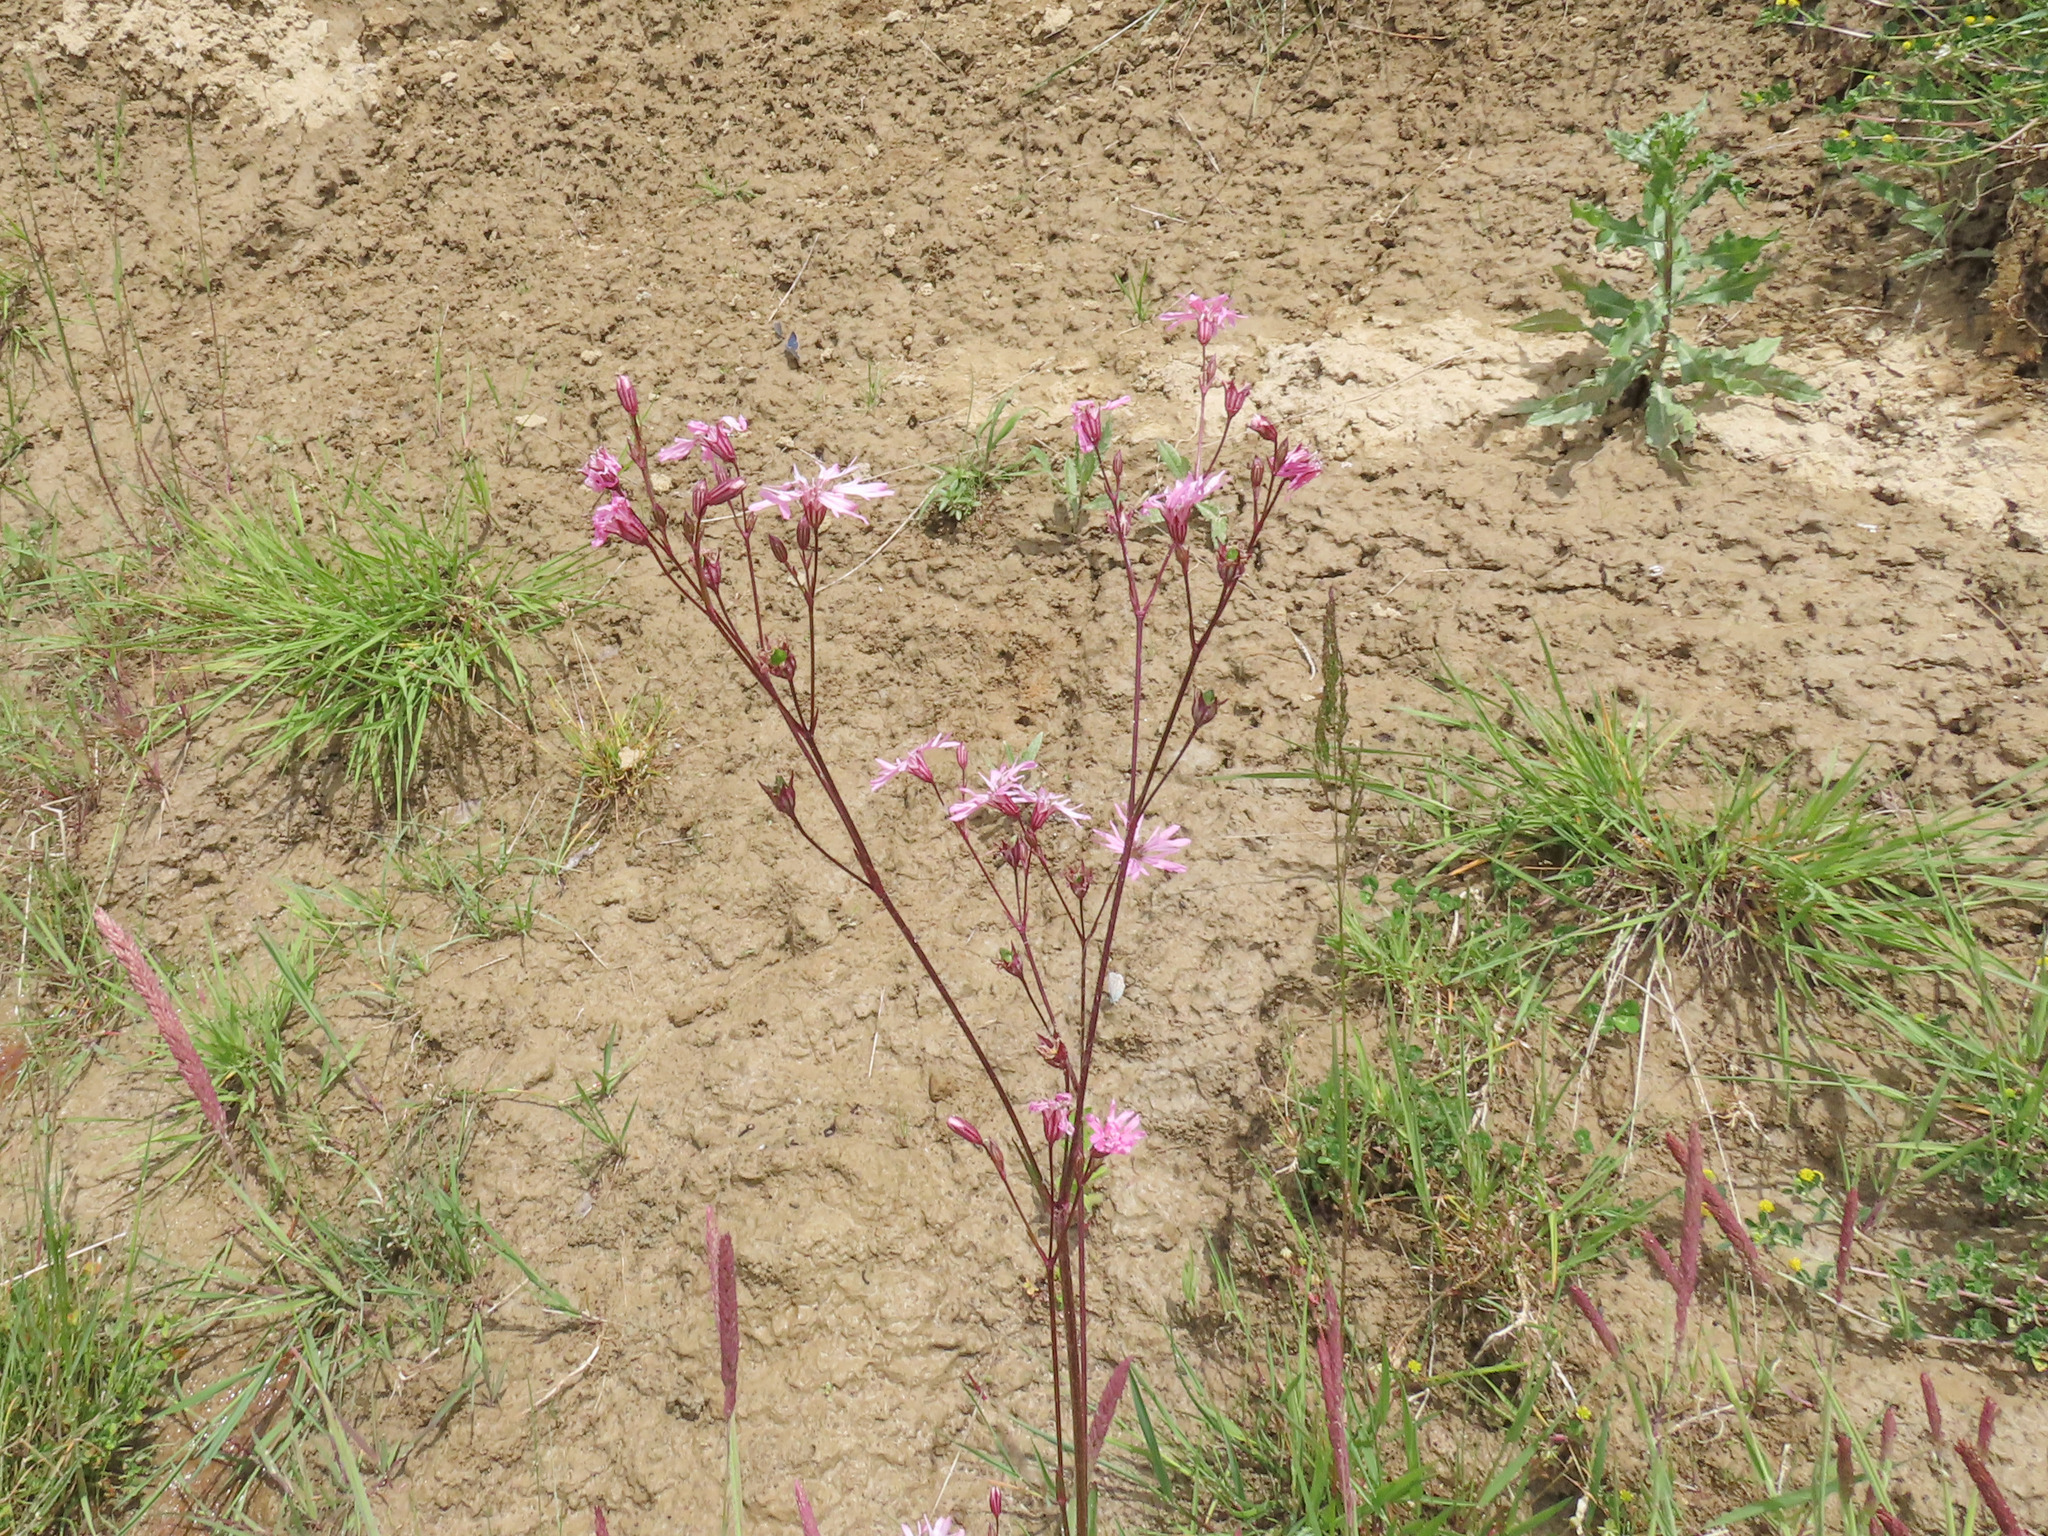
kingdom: Plantae
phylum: Tracheophyta
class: Magnoliopsida
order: Caryophyllales
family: Caryophyllaceae
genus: Silene
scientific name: Silene flos-cuculi
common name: Ragged-robin
